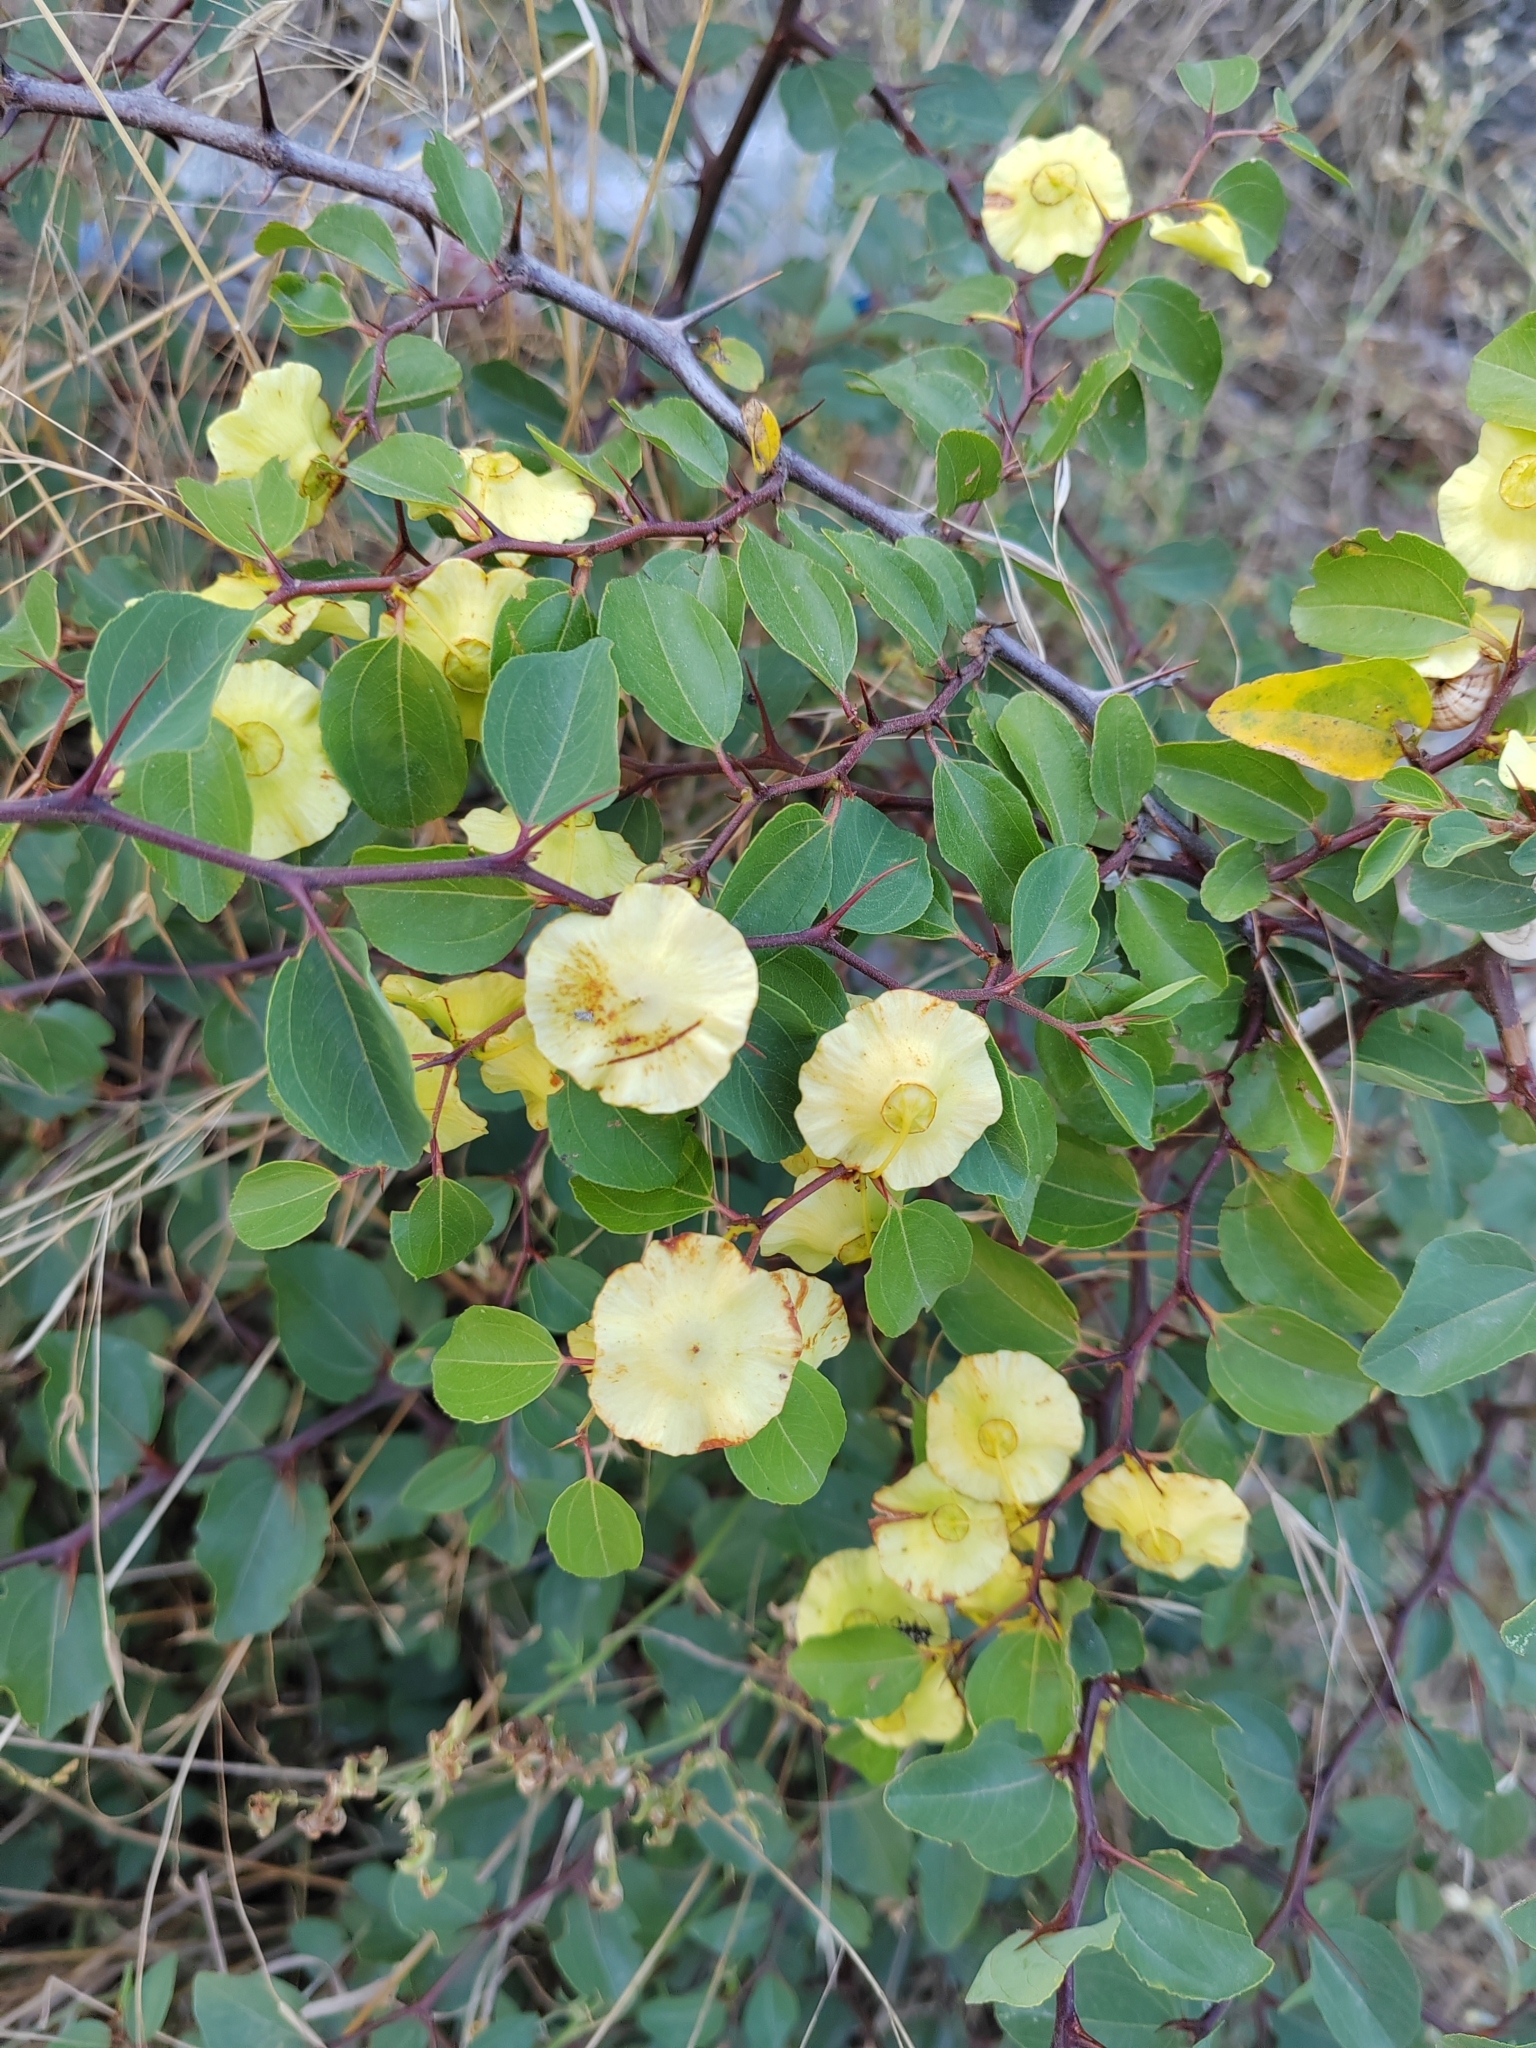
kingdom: Plantae
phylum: Tracheophyta
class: Magnoliopsida
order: Rosales
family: Rhamnaceae
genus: Paliurus
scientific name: Paliurus spina-christi
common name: Jeruselem thorn
